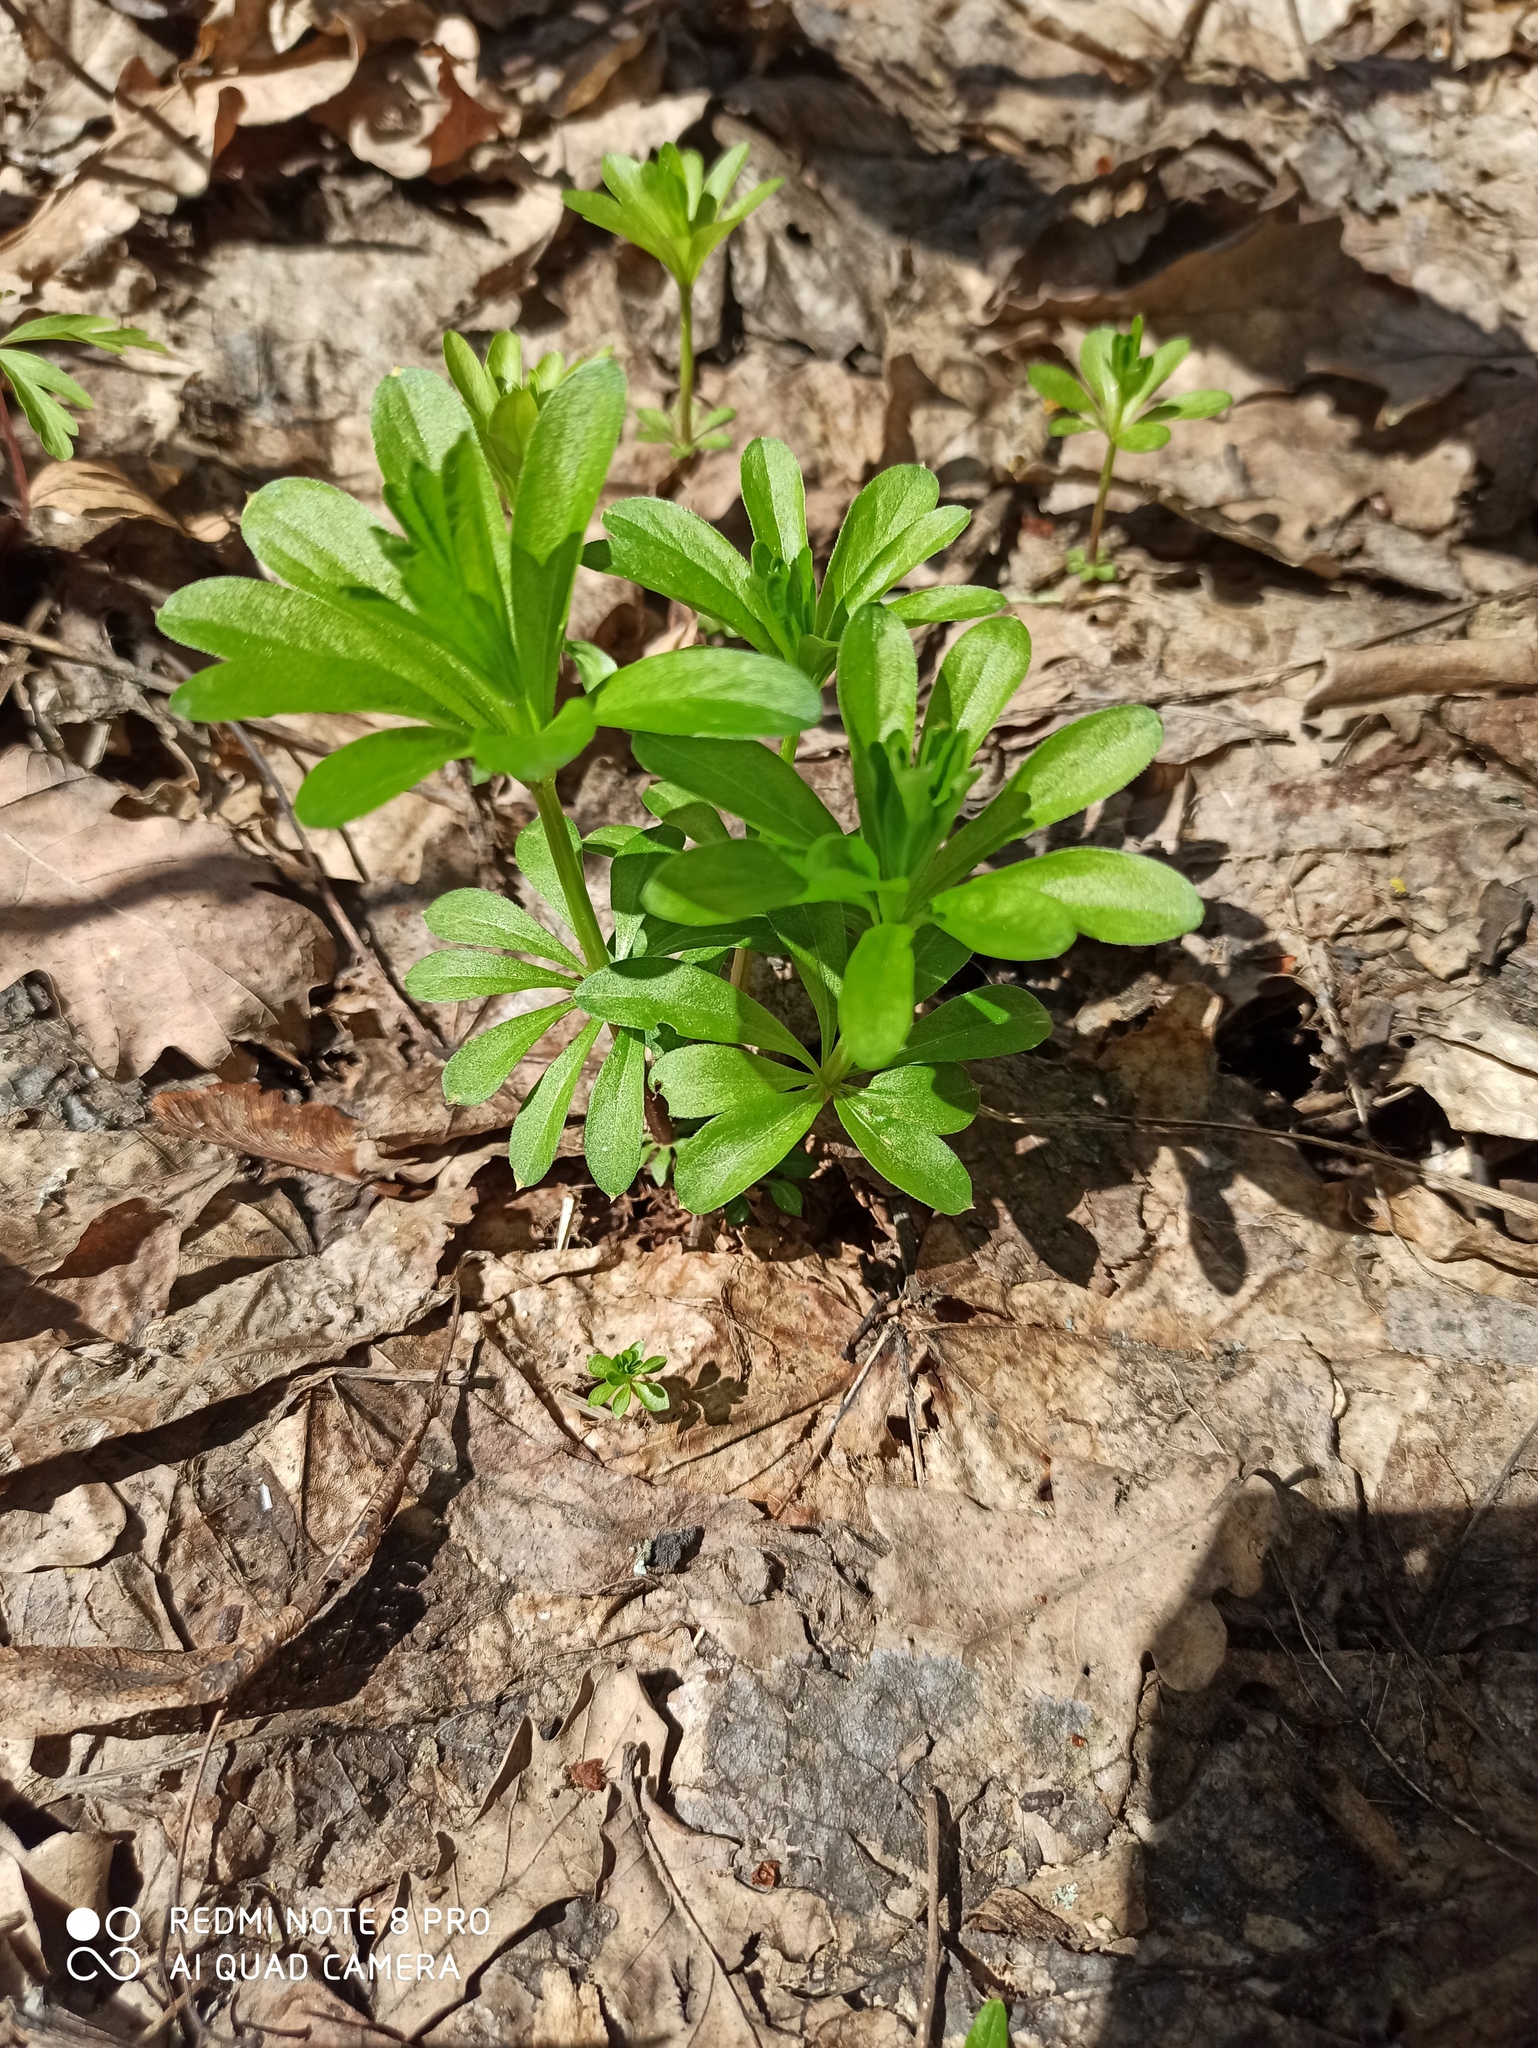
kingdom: Plantae
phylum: Tracheophyta
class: Magnoliopsida
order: Gentianales
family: Rubiaceae
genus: Galium
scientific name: Galium odoratum
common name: Sweet woodruff
